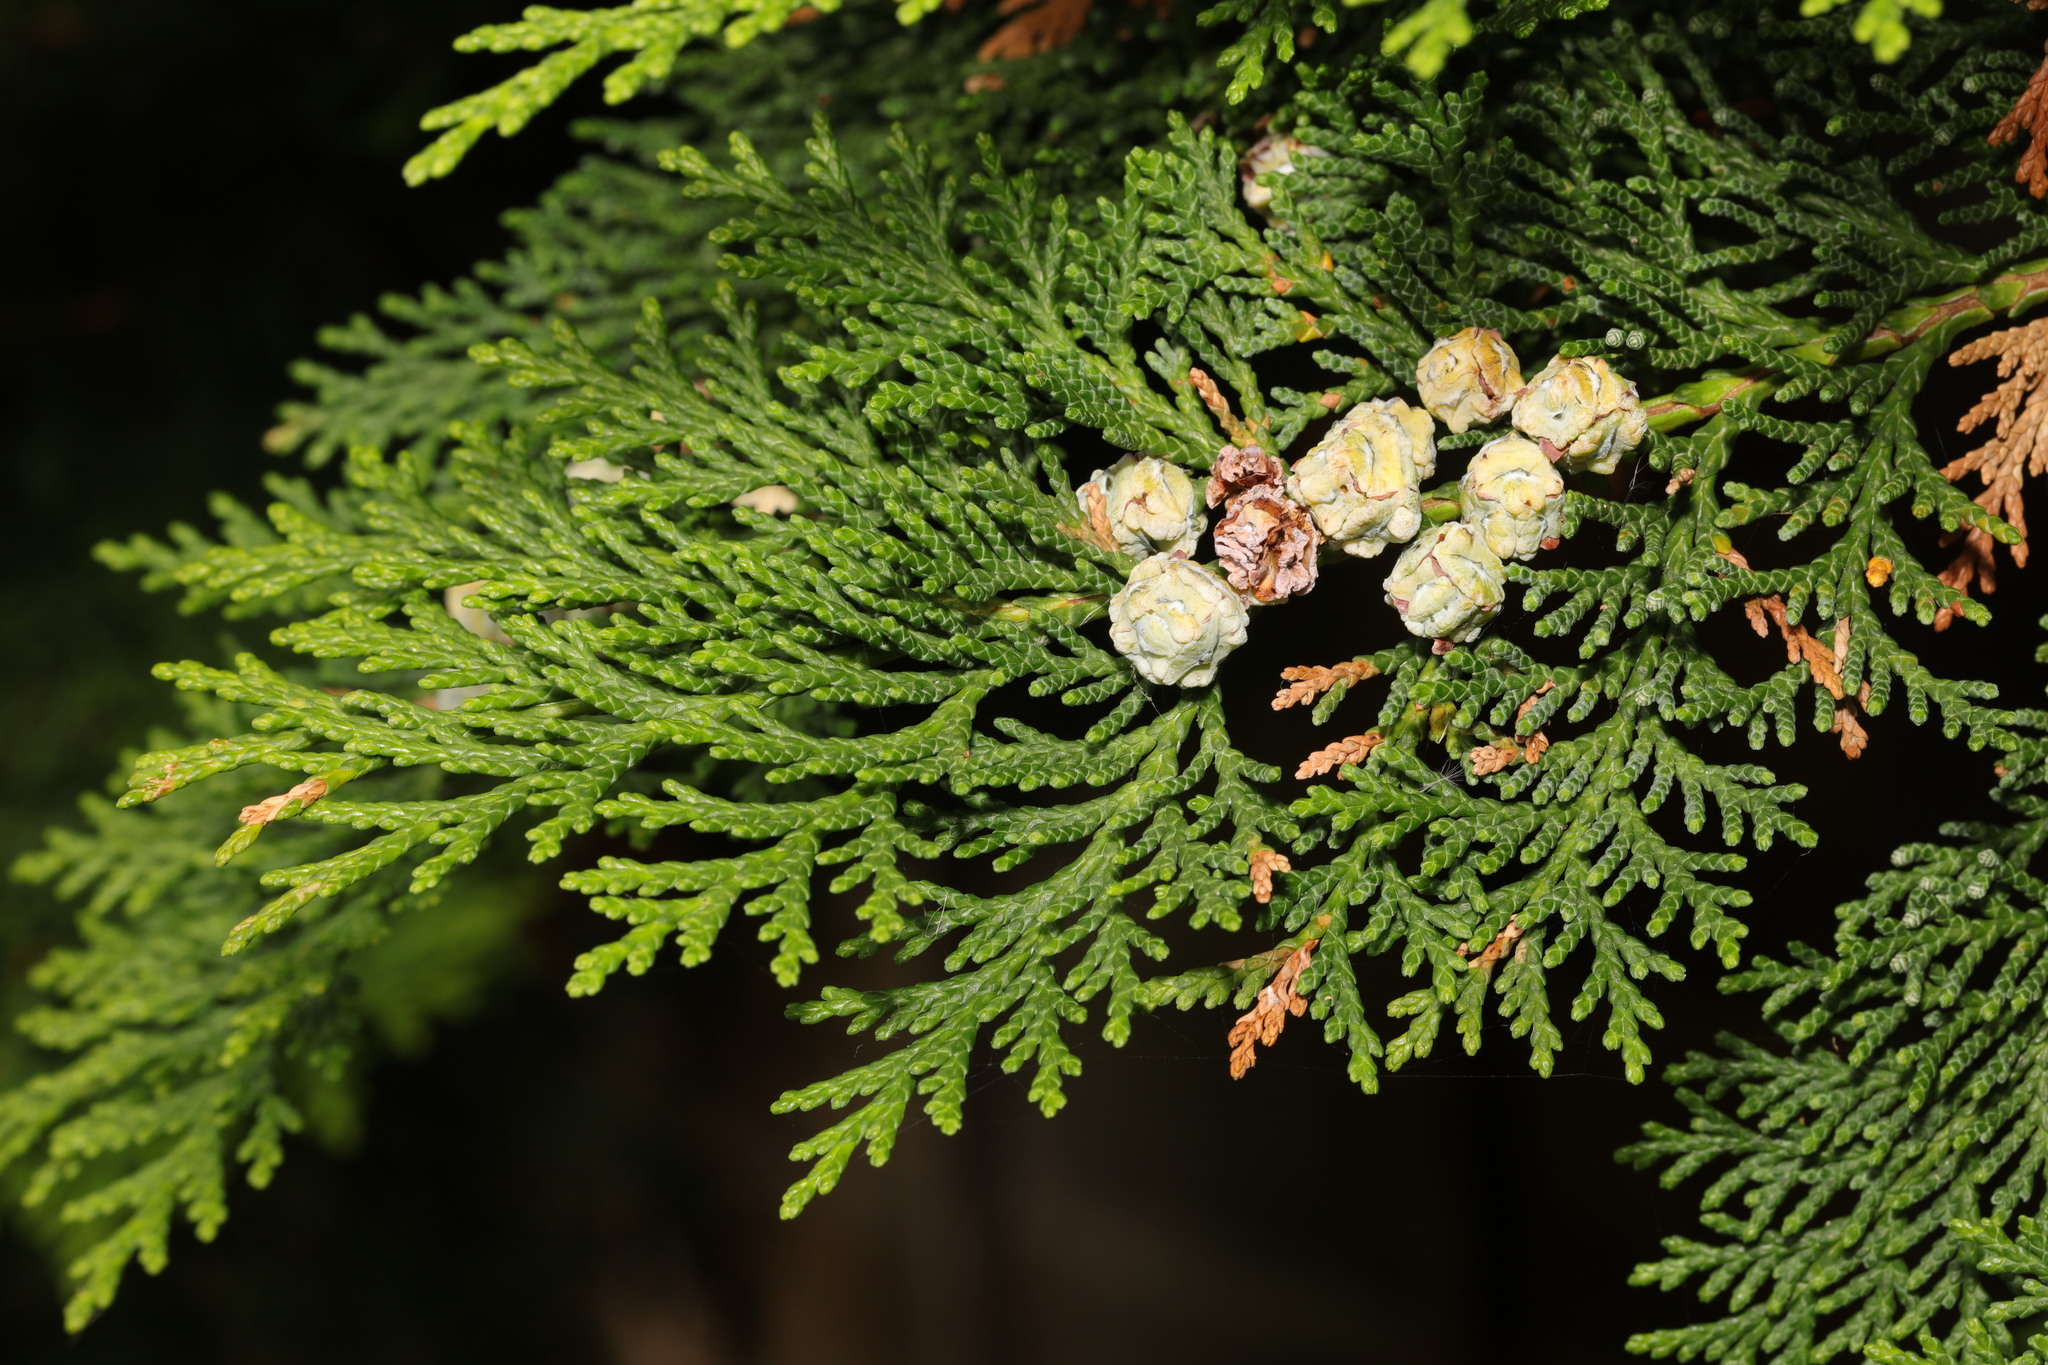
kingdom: Plantae
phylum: Tracheophyta
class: Pinopsida
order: Pinales
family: Cupressaceae
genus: Chamaecyparis
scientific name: Chamaecyparis lawsoniana
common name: Lawson's cypress
